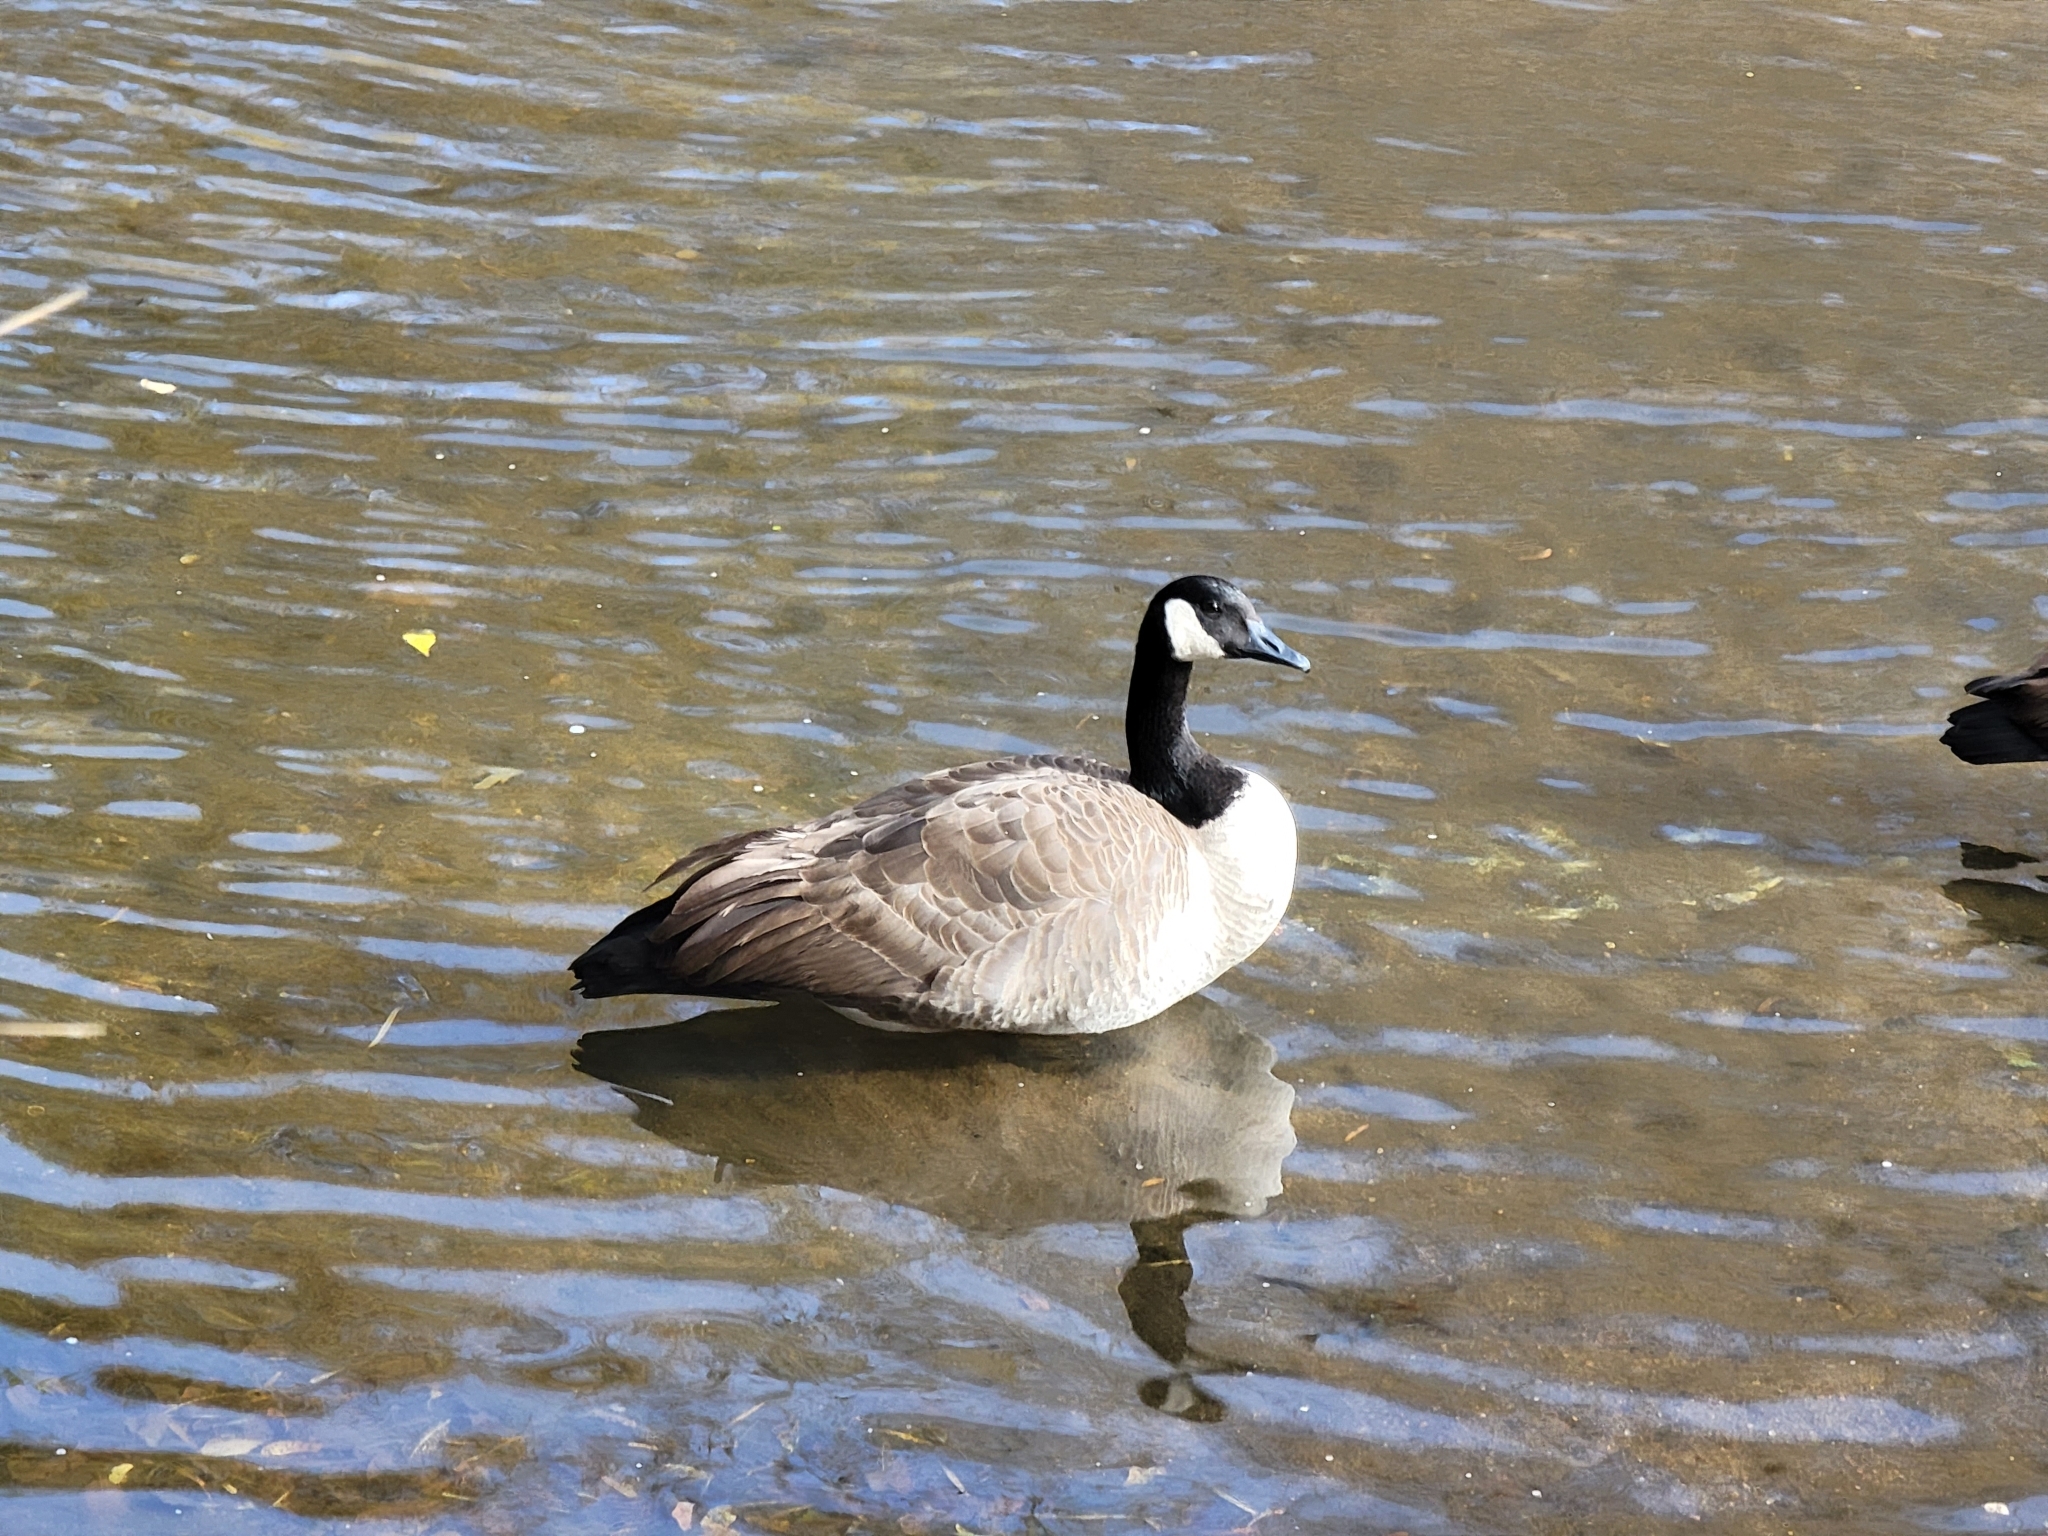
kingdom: Animalia
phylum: Chordata
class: Aves
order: Anseriformes
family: Anatidae
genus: Branta
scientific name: Branta canadensis
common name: Canada goose
